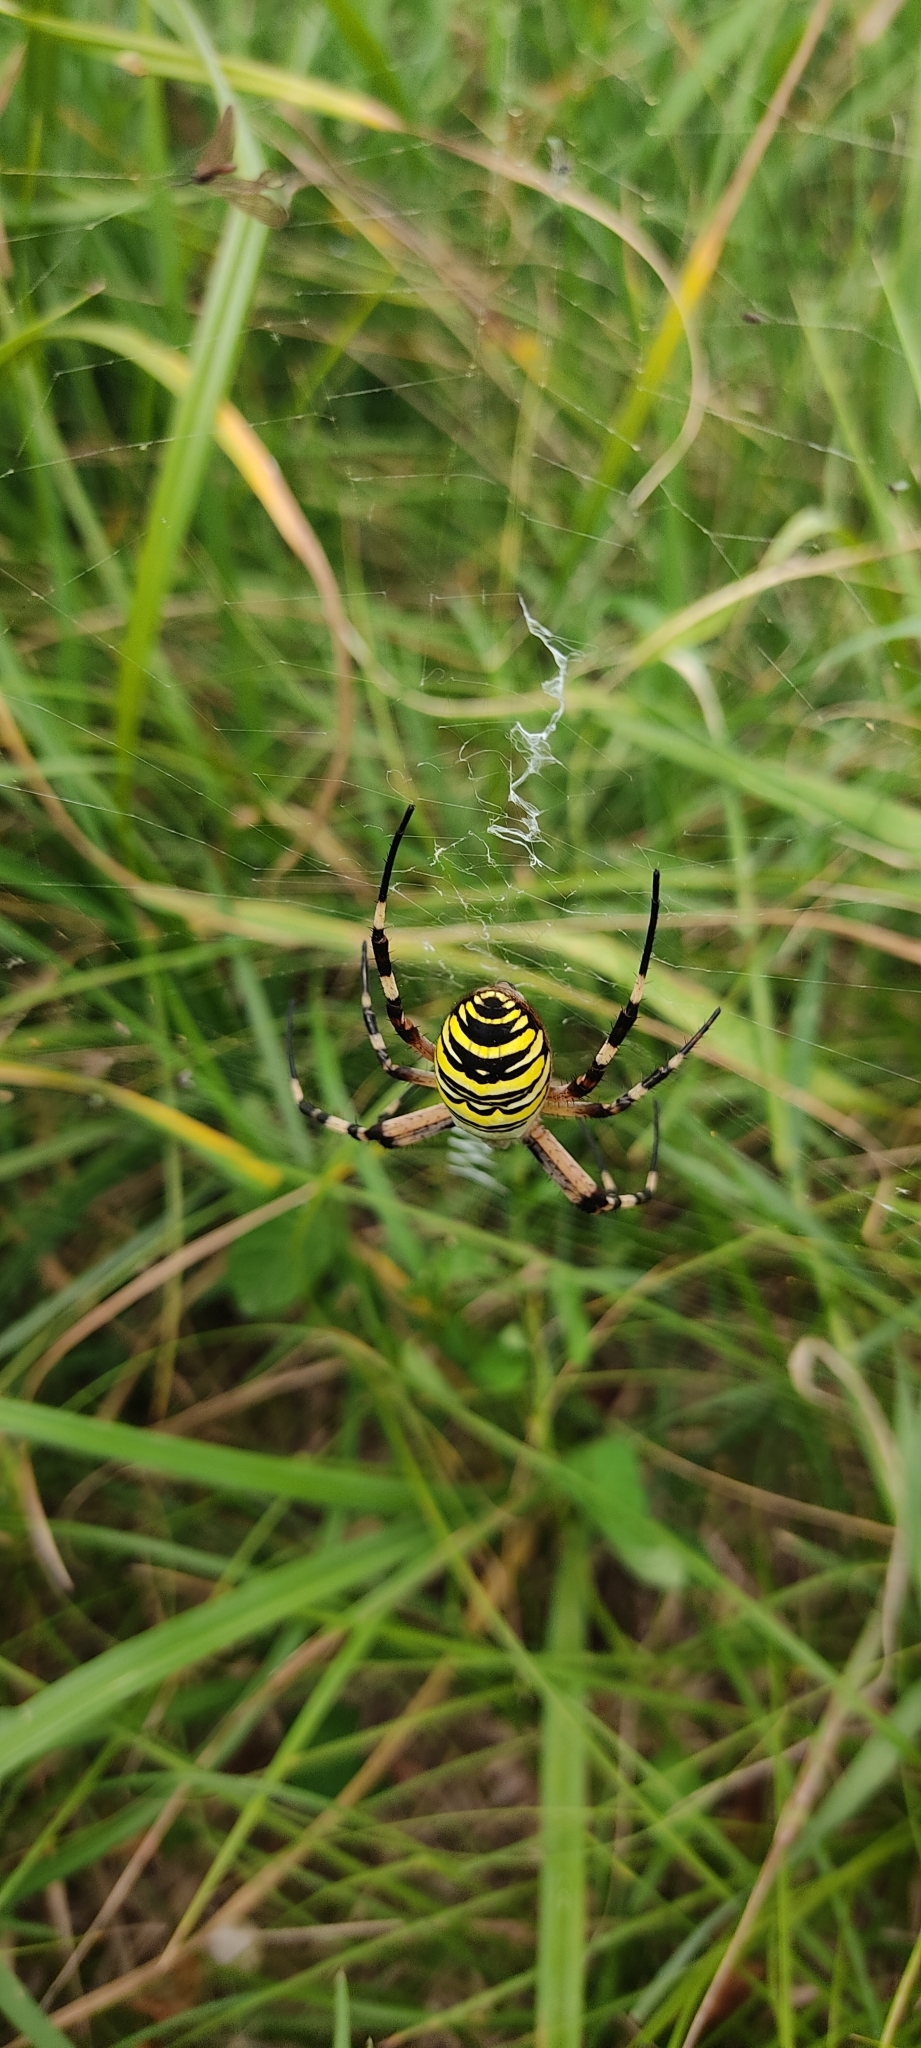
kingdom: Animalia
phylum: Arthropoda
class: Arachnida
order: Araneae
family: Araneidae
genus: Argiope
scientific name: Argiope bruennichi
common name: Wasp spider
